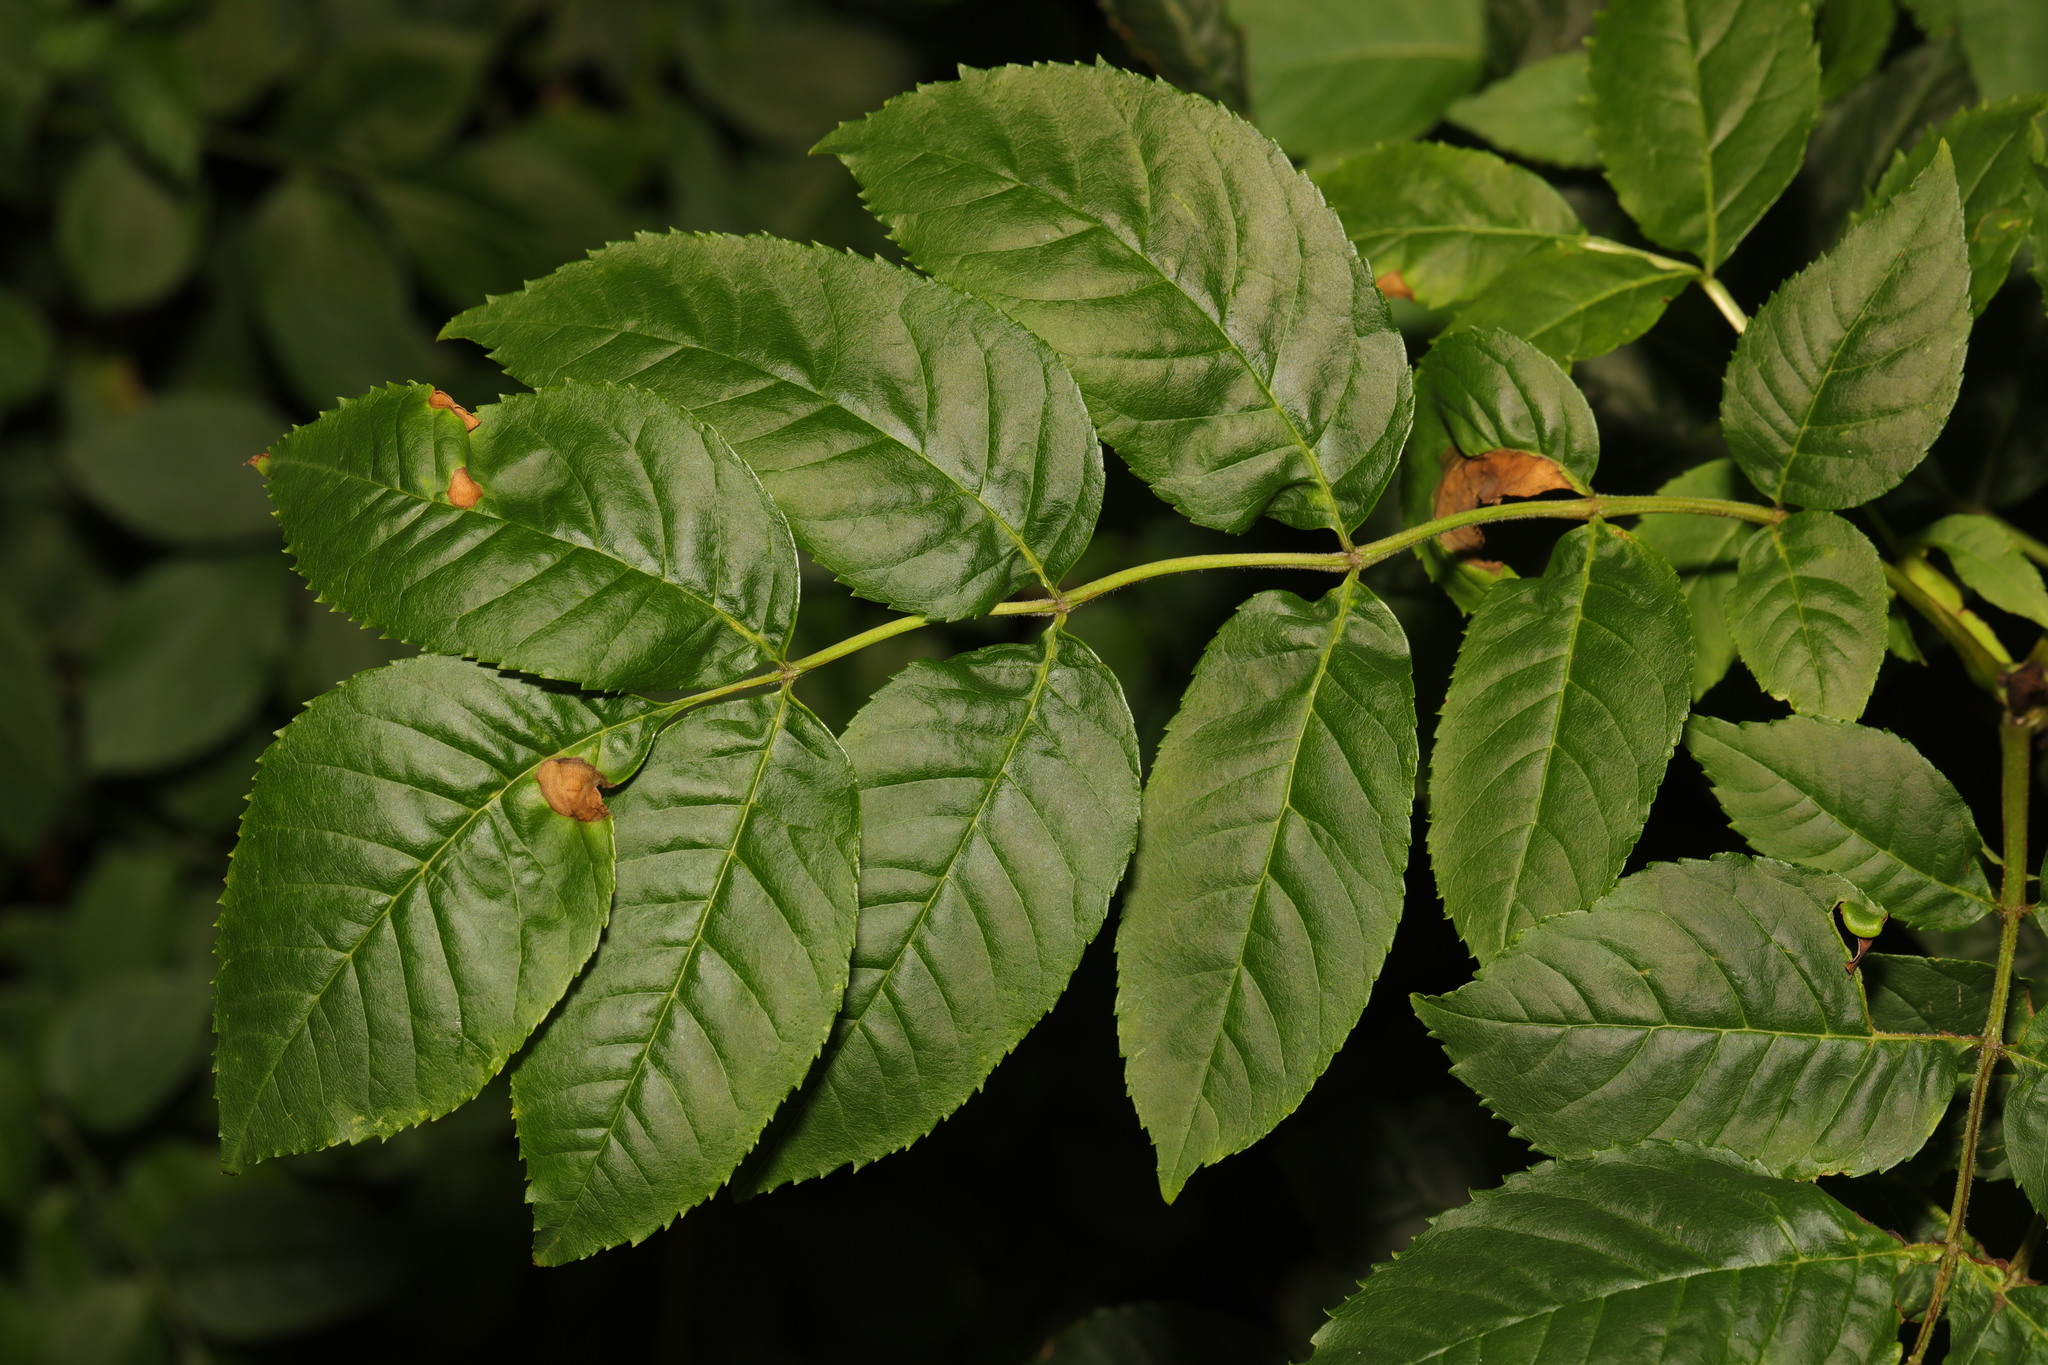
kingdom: Animalia
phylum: Arthropoda
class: Insecta
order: Diptera
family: Cecidomyiidae
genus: Dasineura
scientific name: Dasineura fraxinea
